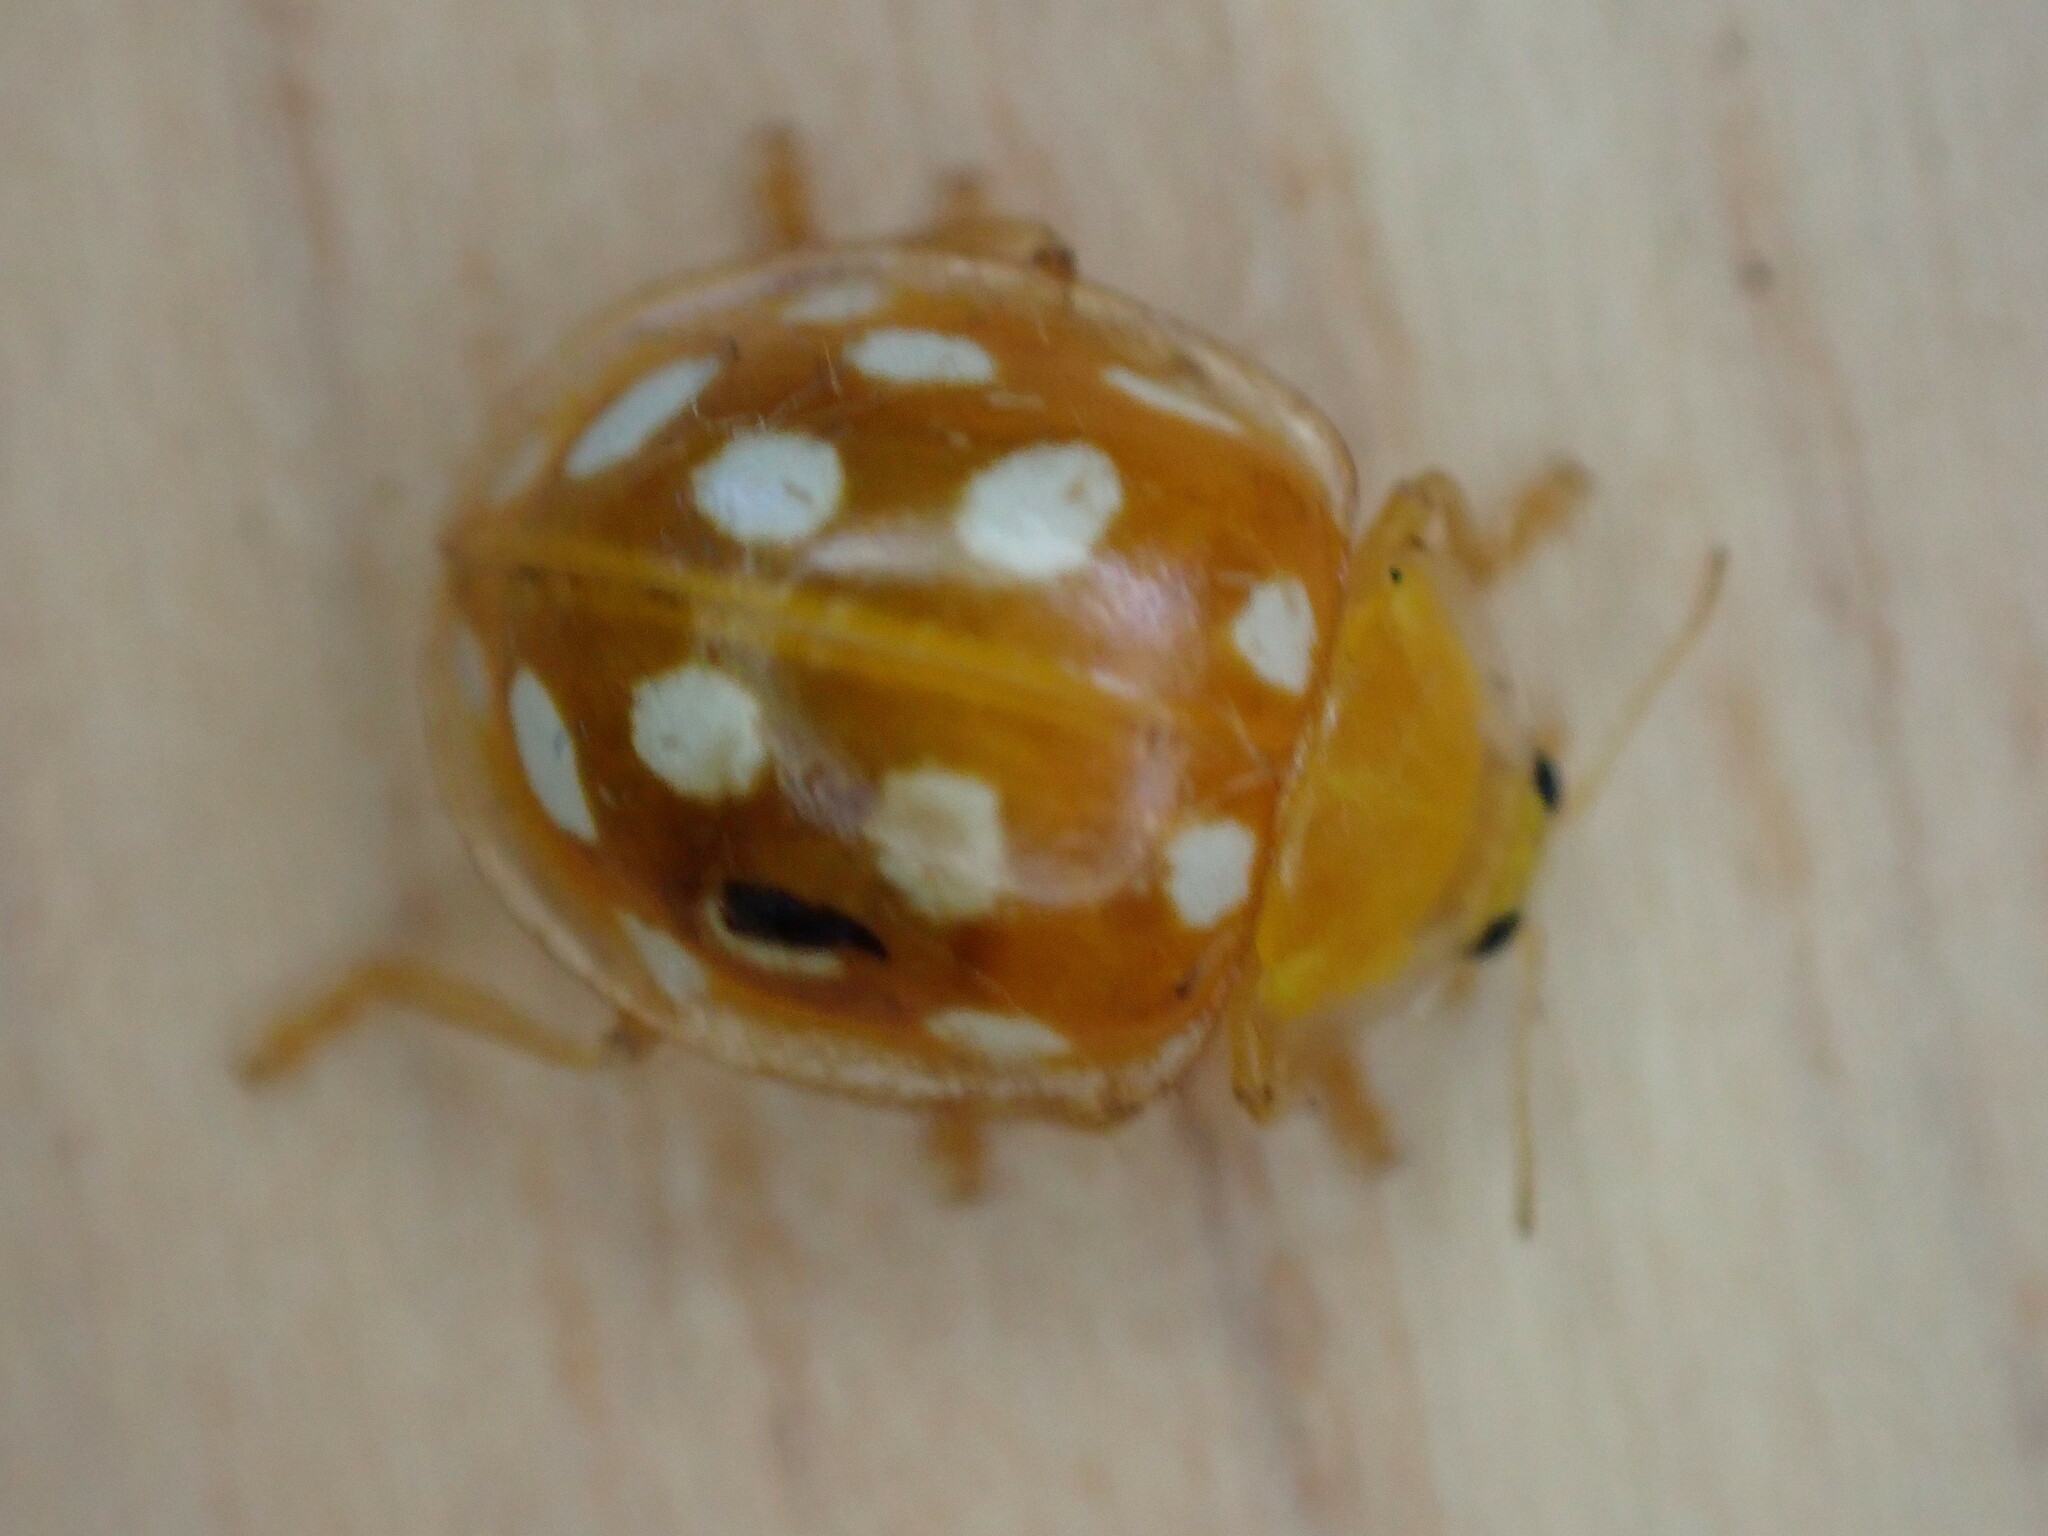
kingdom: Animalia
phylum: Arthropoda
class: Insecta
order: Coleoptera
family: Coccinellidae
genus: Halyzia
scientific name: Halyzia sedecimguttata
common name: Orange ladybird
